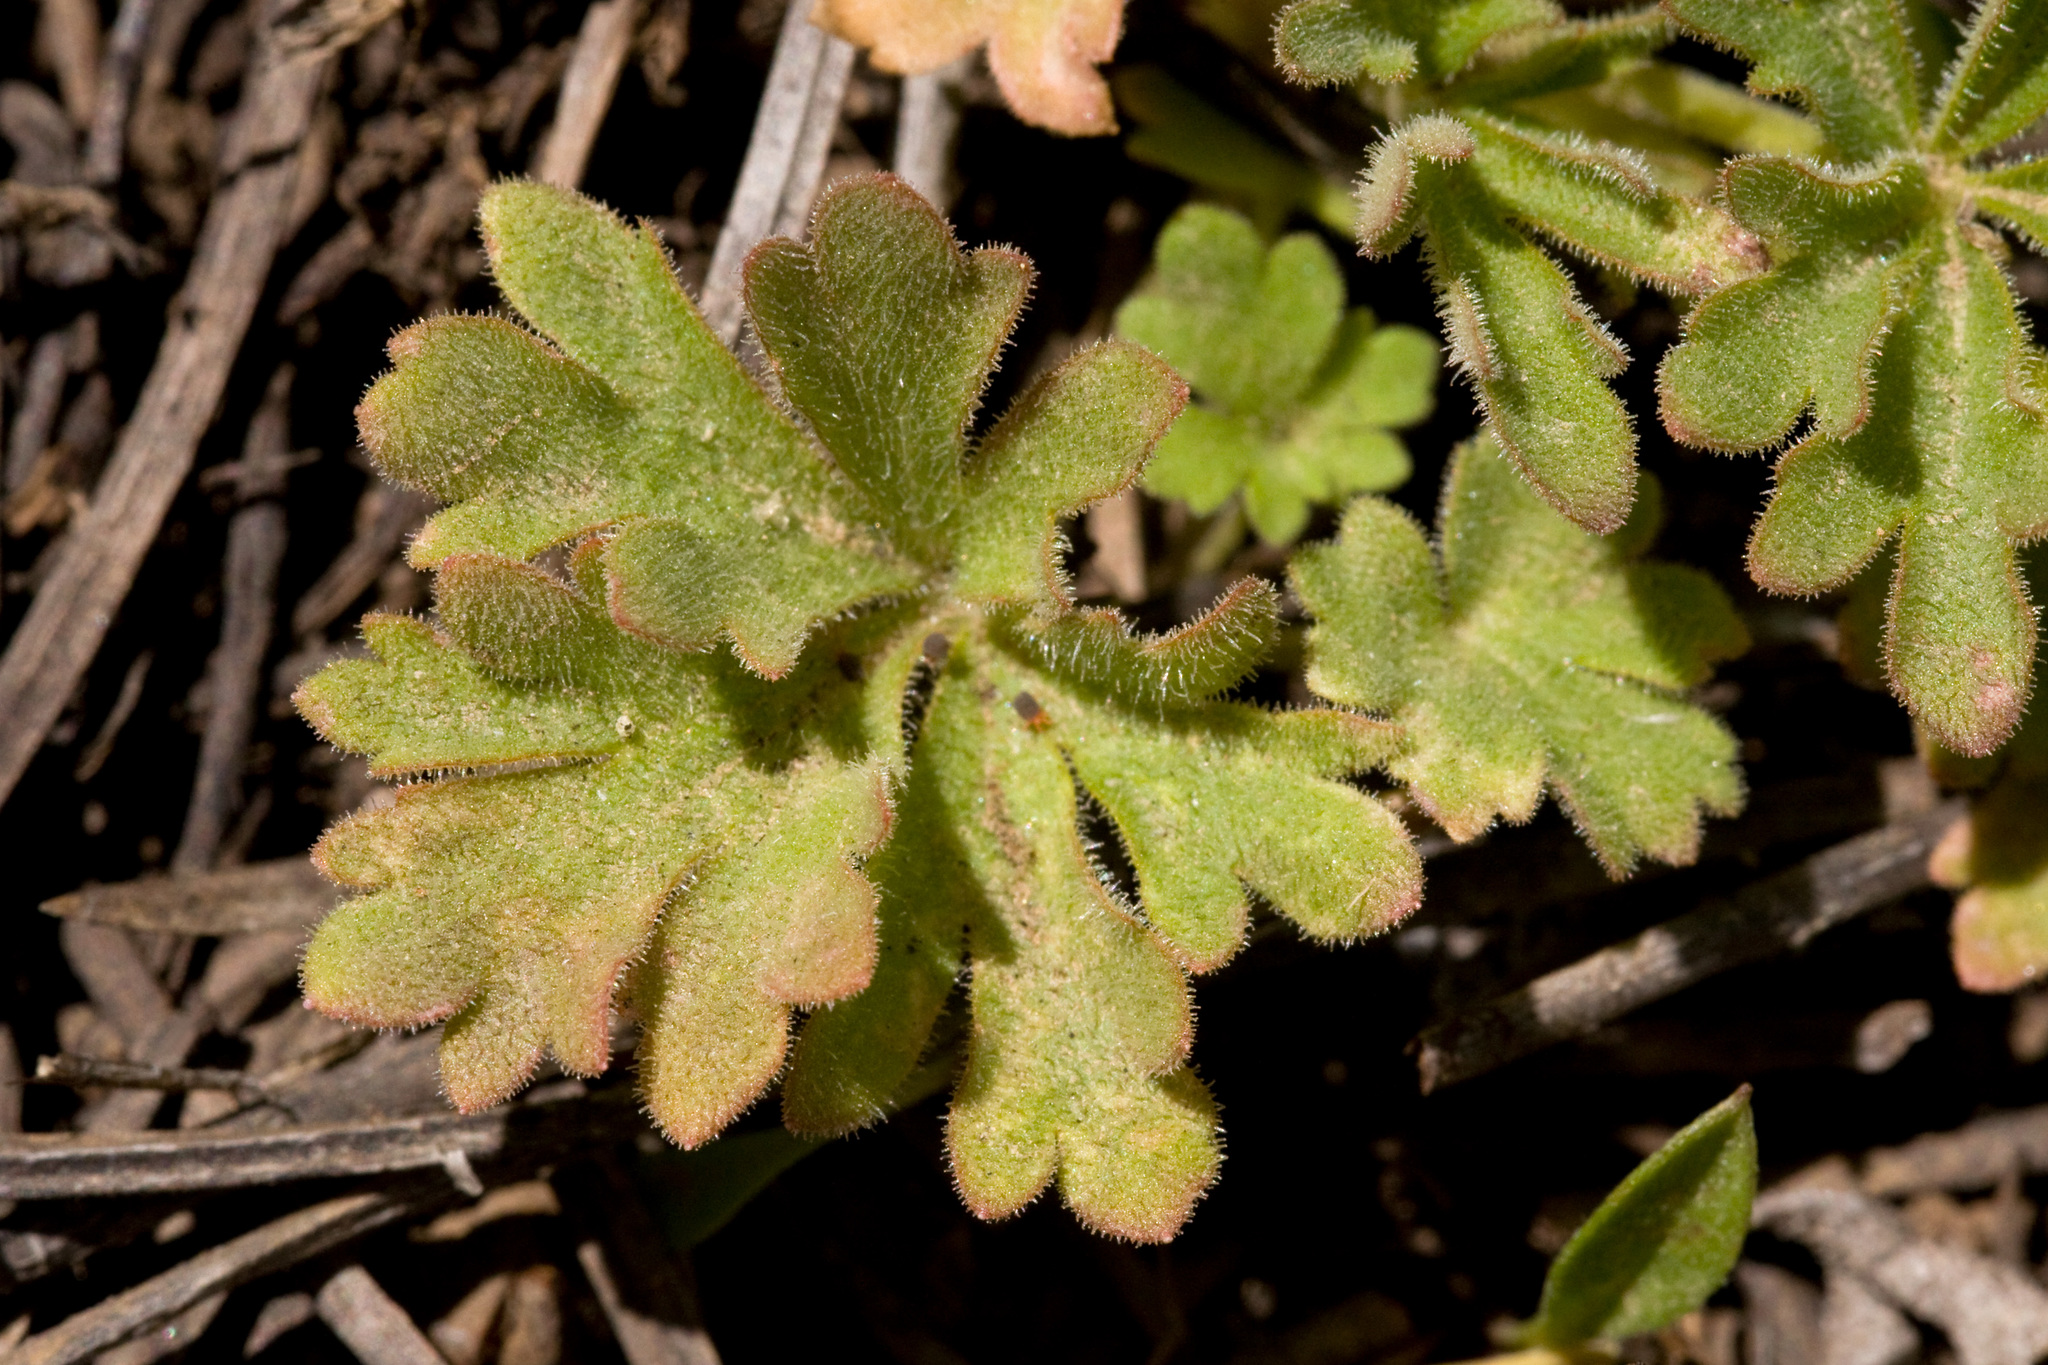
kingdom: Plantae
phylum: Tracheophyta
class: Magnoliopsida
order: Saxifragales
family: Saxifragaceae
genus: Lithophragma
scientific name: Lithophragma tenella
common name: Slender fringe-cup
